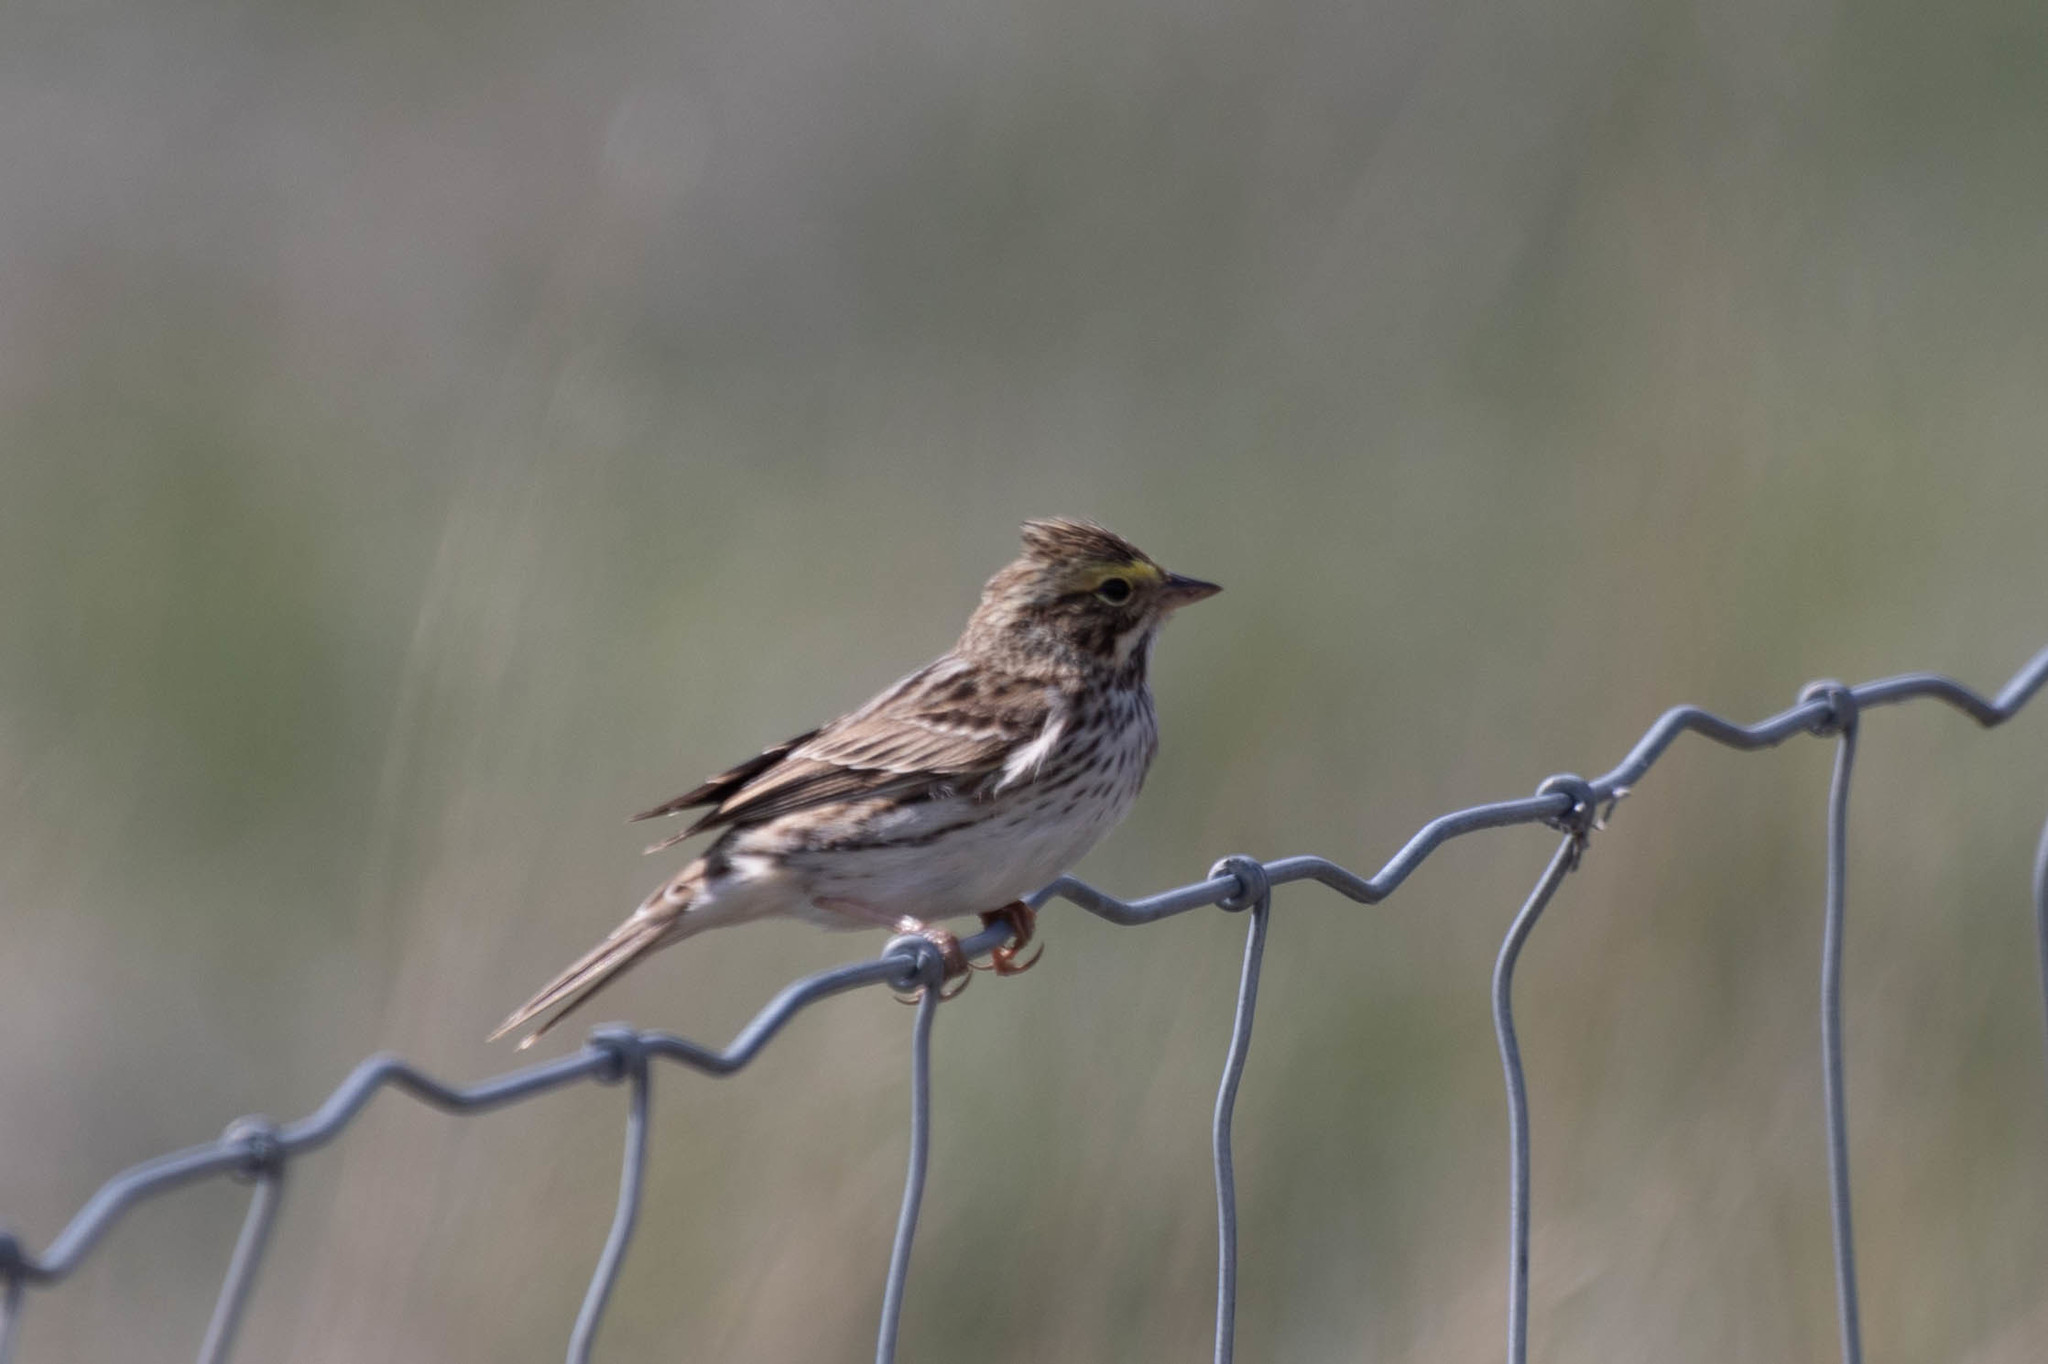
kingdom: Animalia
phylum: Chordata
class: Aves
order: Passeriformes
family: Passerellidae
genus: Passerculus
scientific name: Passerculus sandwichensis
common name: Savannah sparrow
